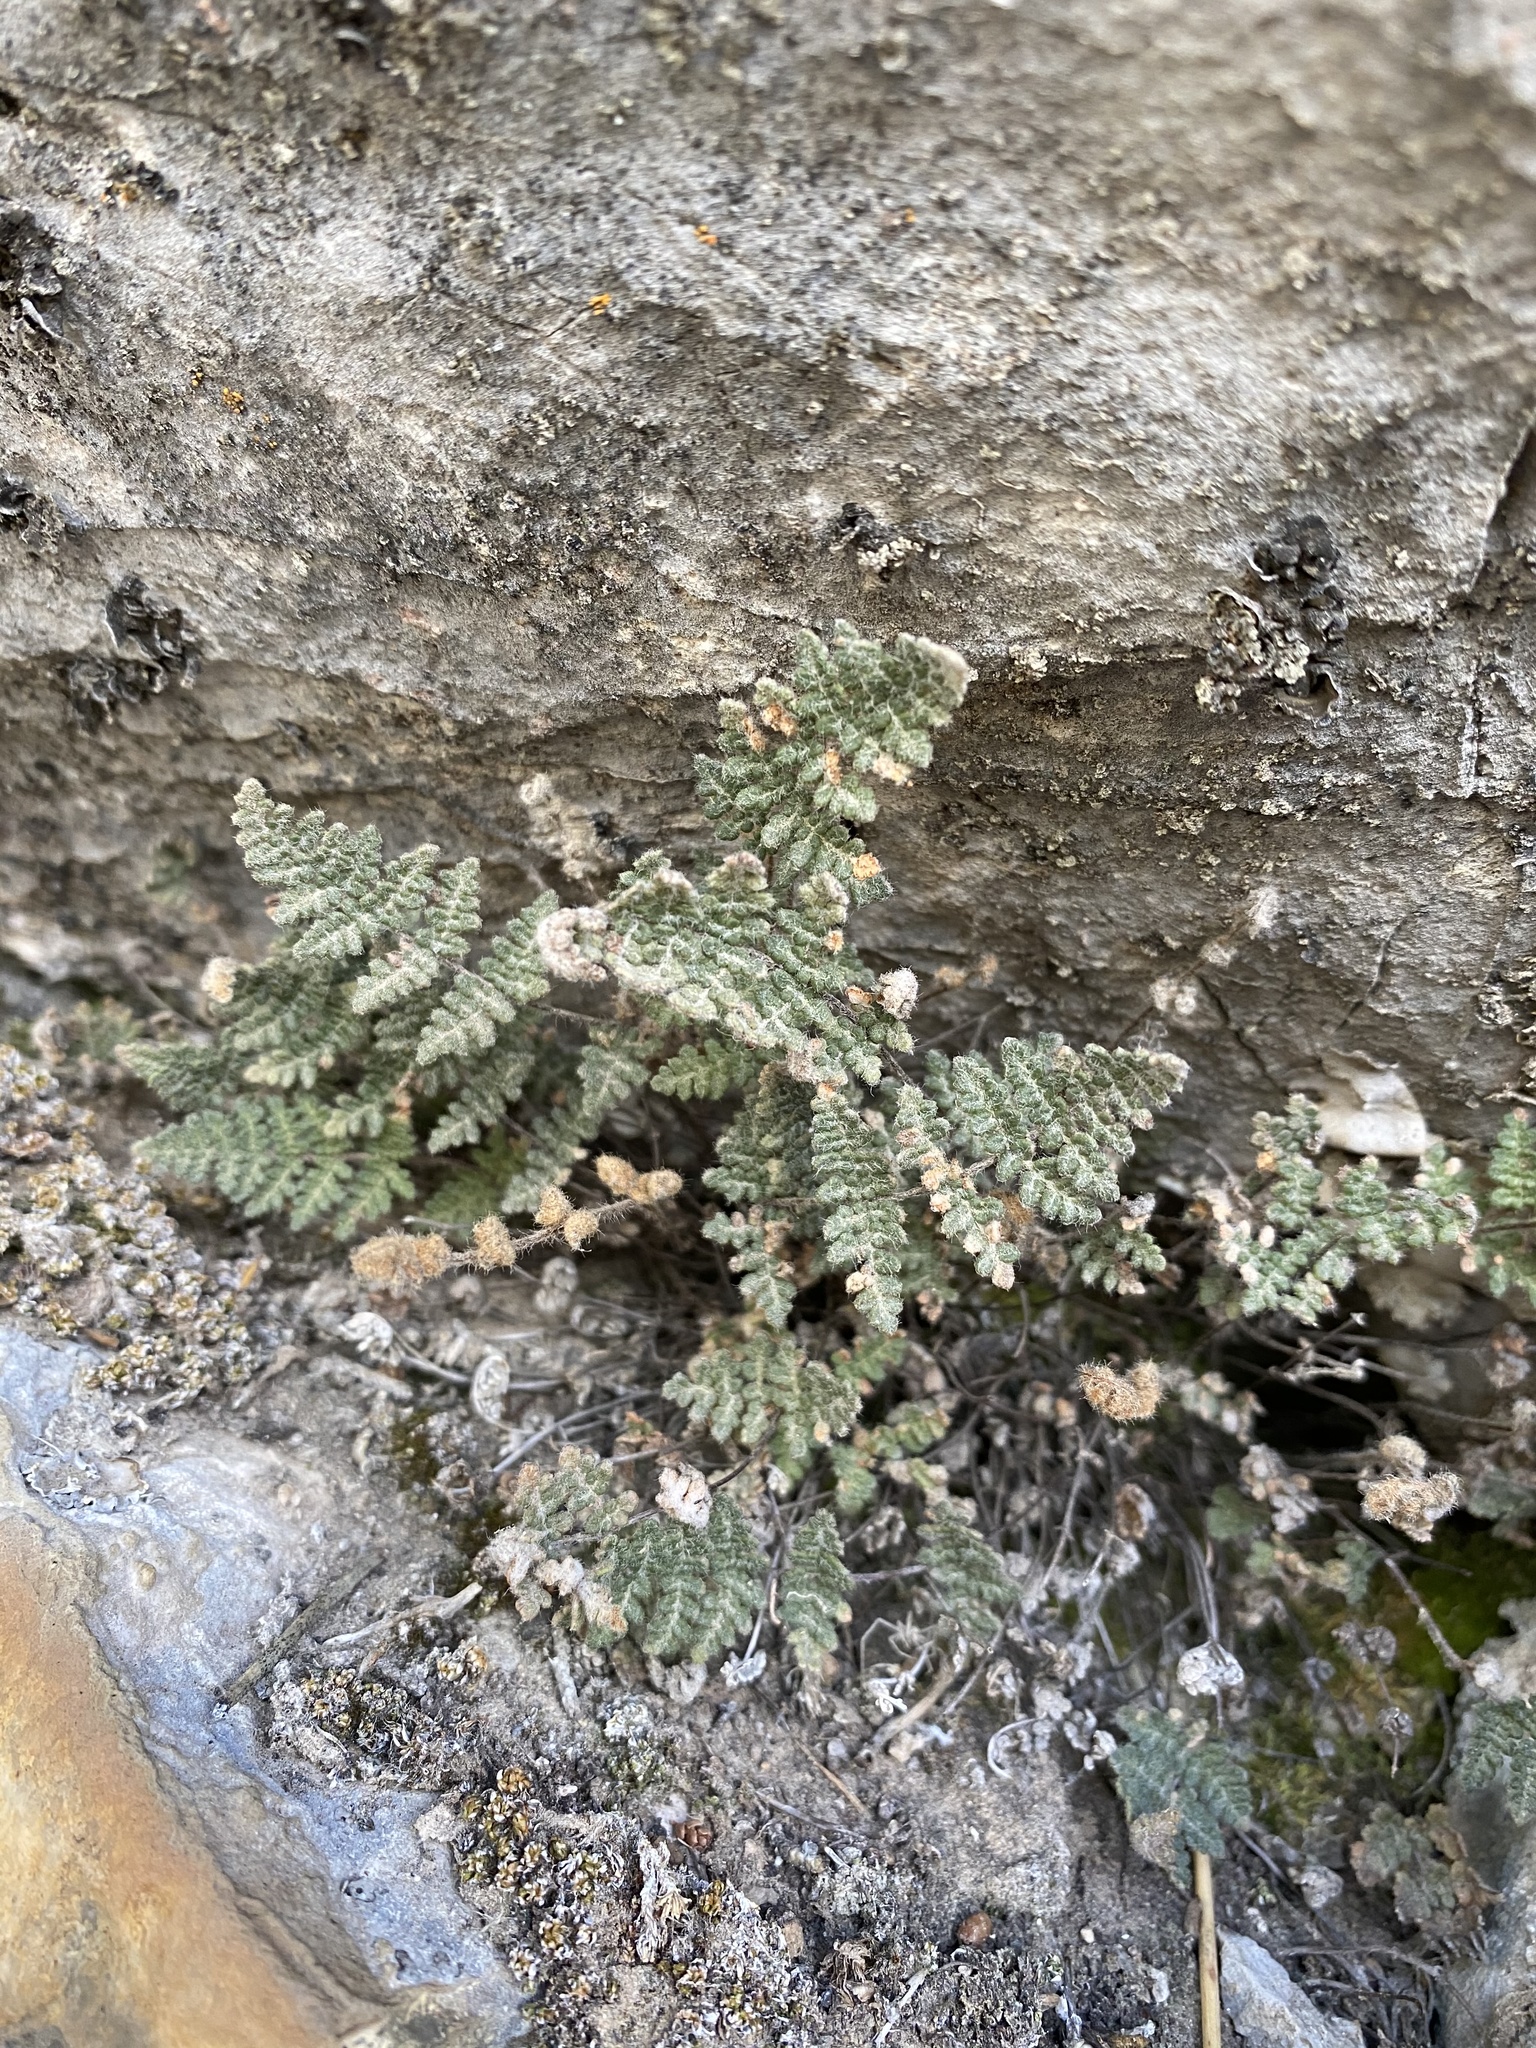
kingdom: Plantae
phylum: Tracheophyta
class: Polypodiopsida
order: Polypodiales
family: Pteridaceae
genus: Myriopteris
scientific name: Myriopteris gracilis
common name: Fee's lip fern
